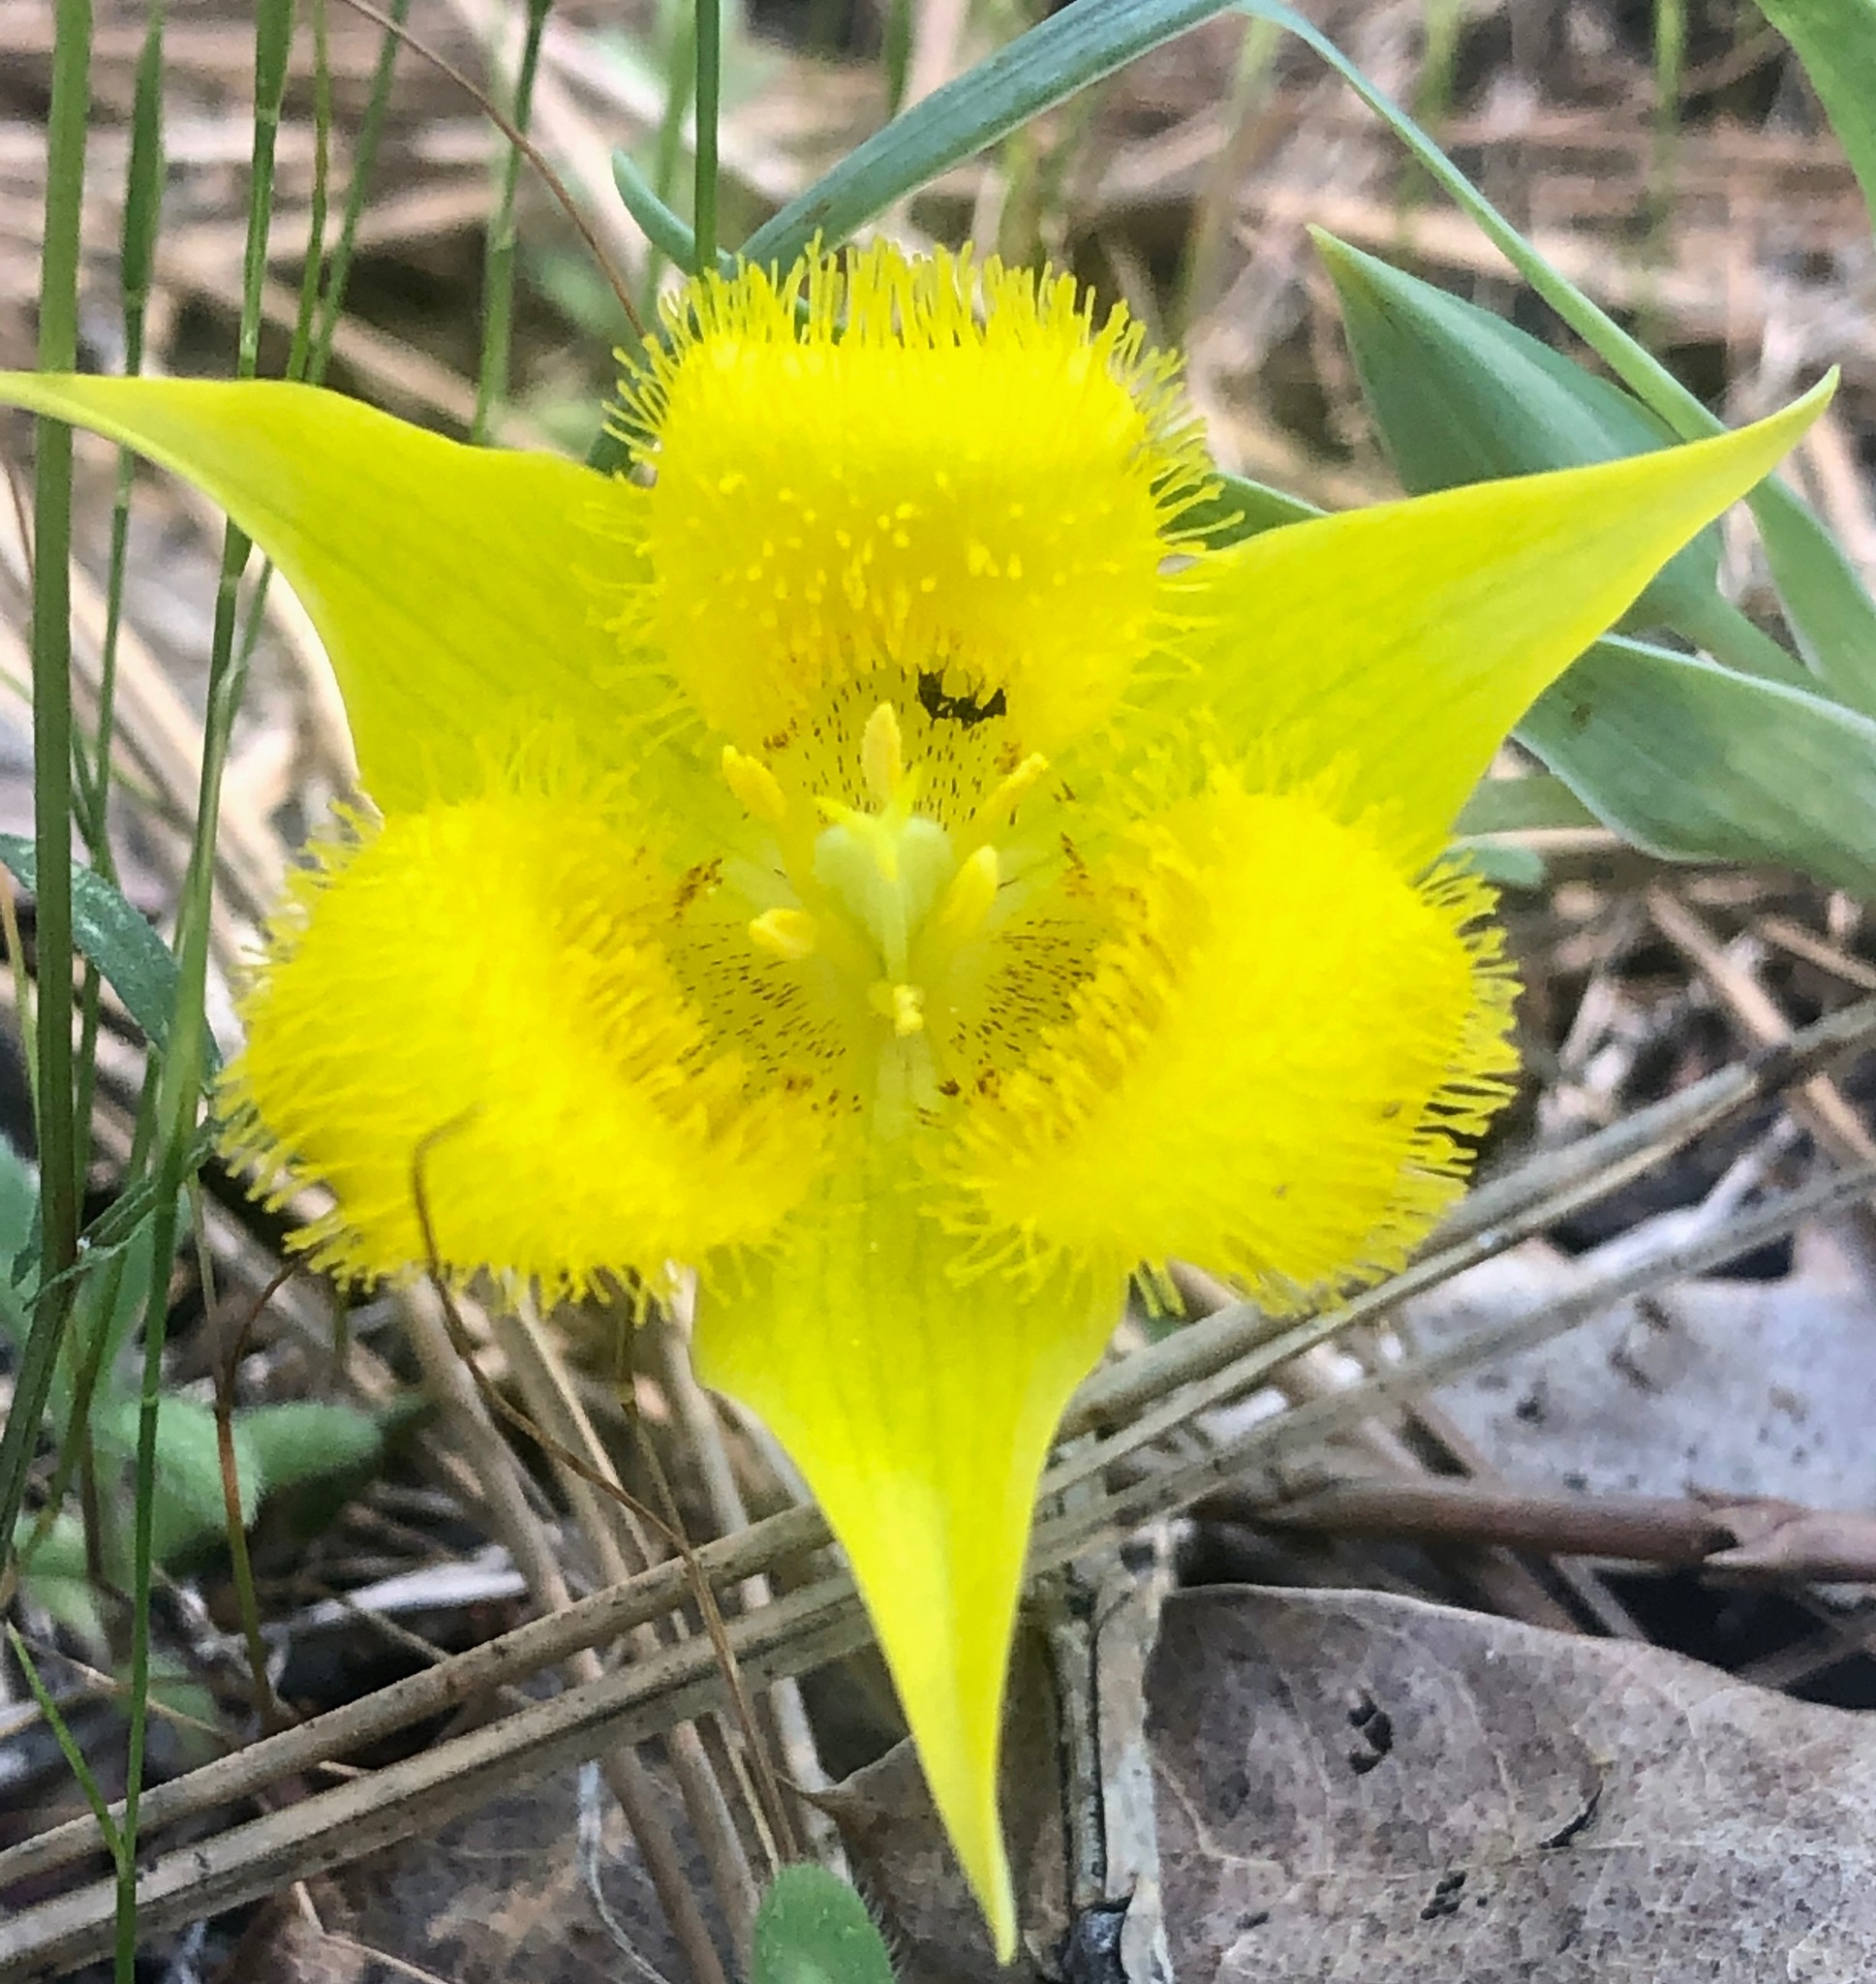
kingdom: Plantae
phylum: Tracheophyta
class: Liliopsida
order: Liliales
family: Liliaceae
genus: Calochortus
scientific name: Calochortus monophyllus
